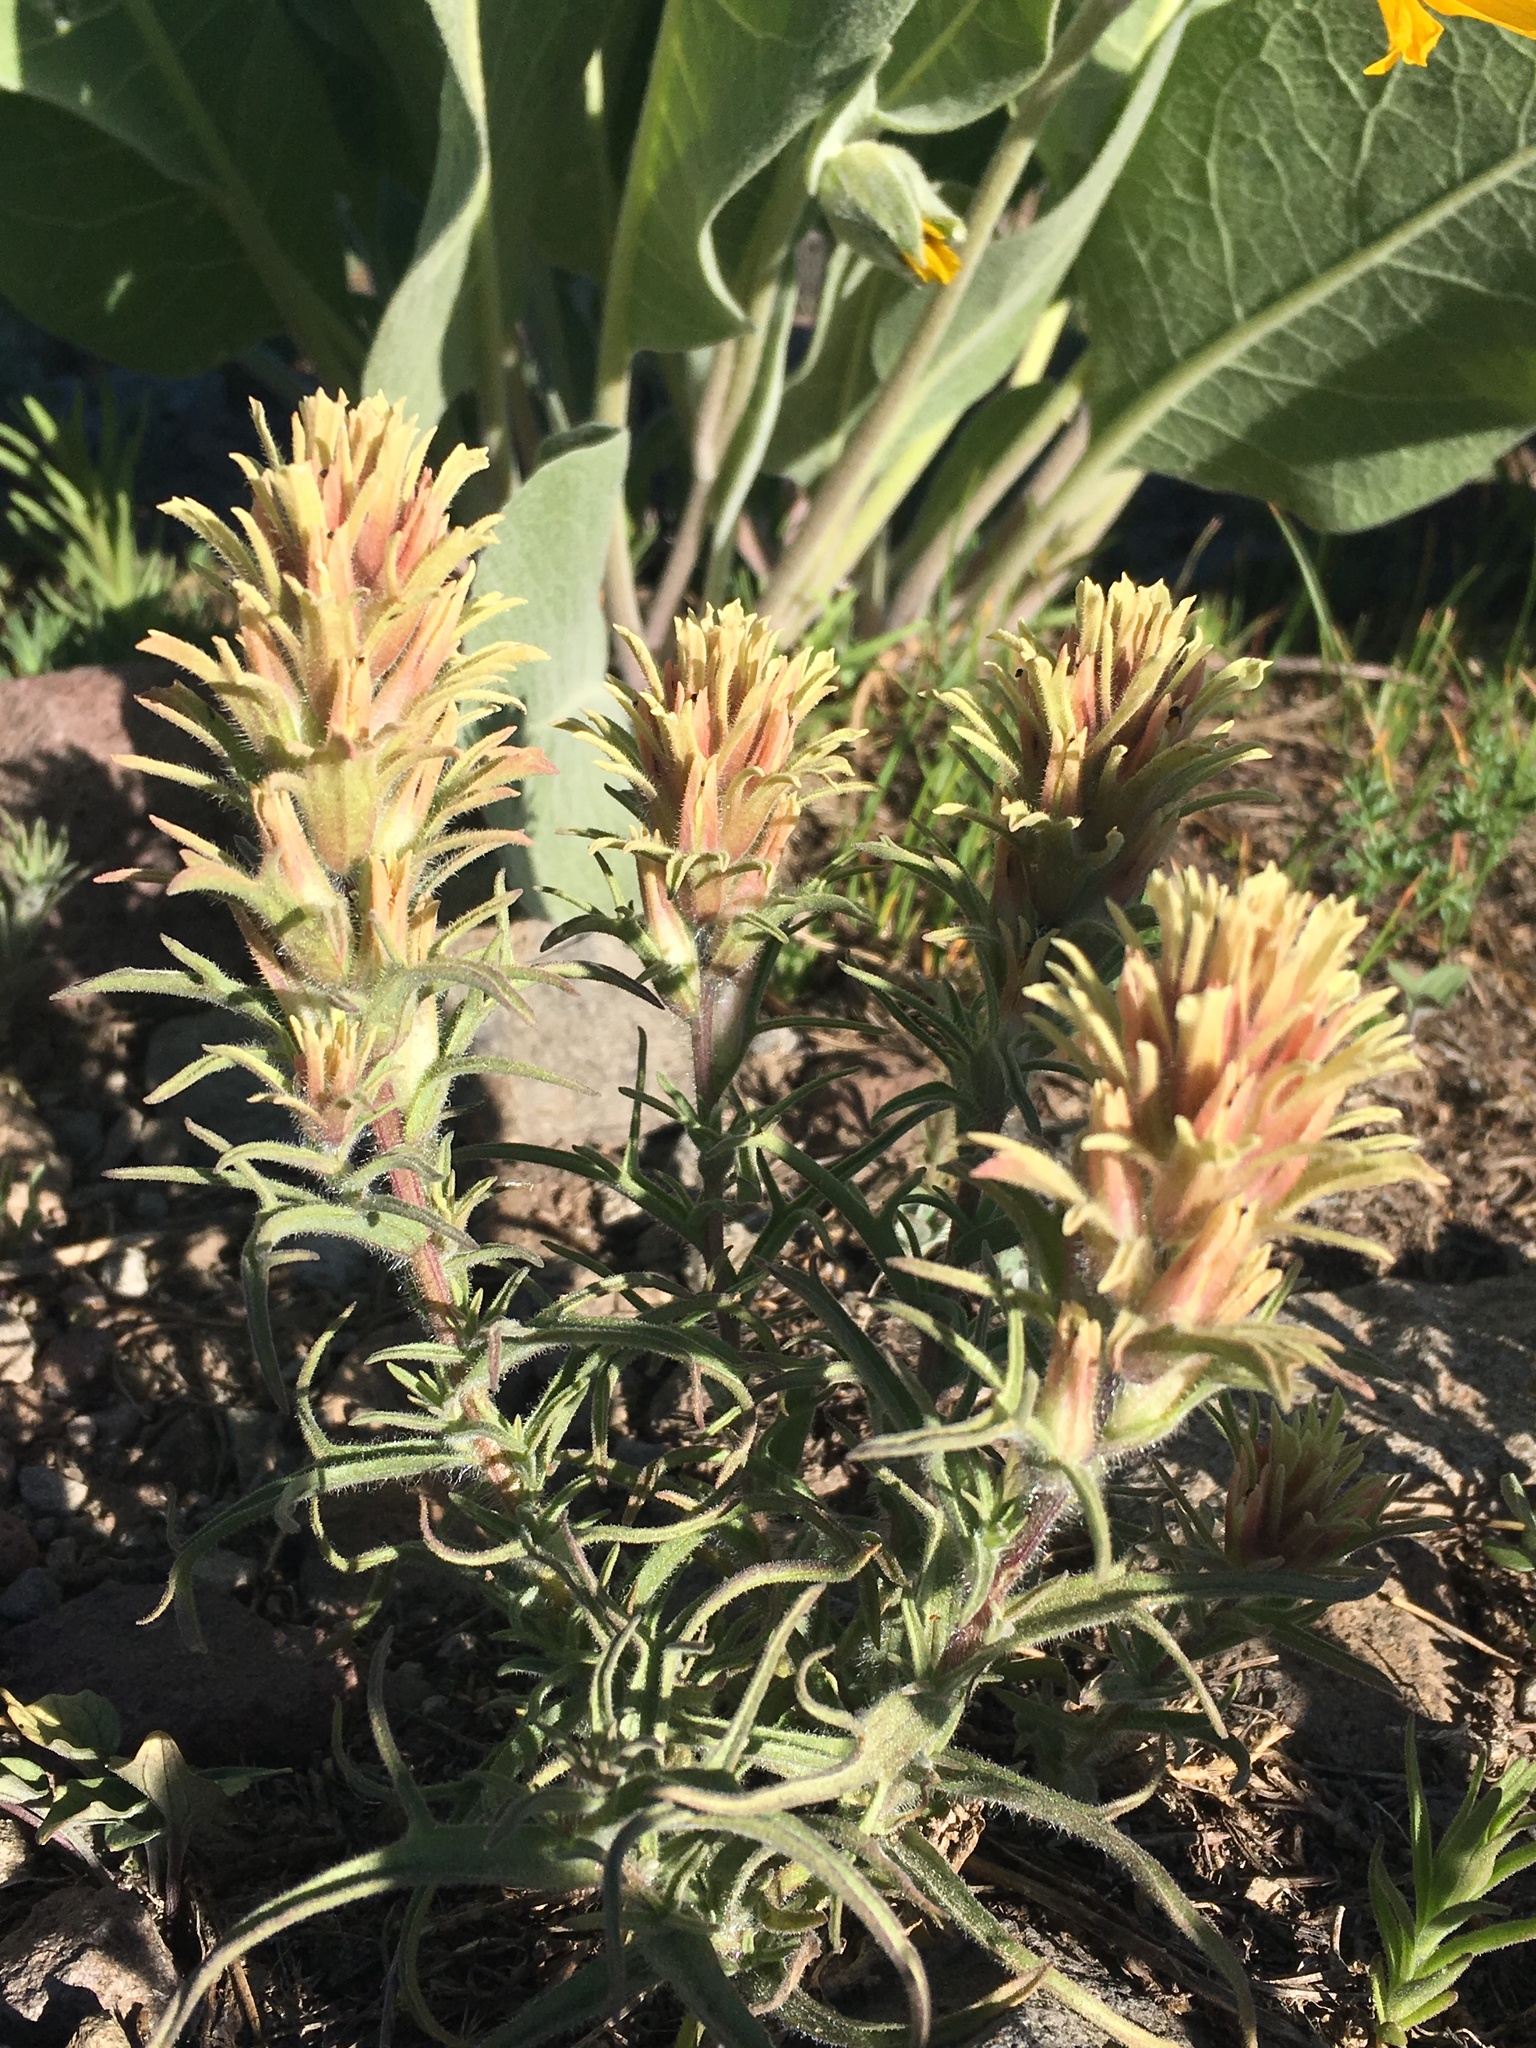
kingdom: Plantae
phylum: Tracheophyta
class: Magnoliopsida
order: Lamiales
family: Orobanchaceae
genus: Castilleja
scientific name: Castilleja nana
